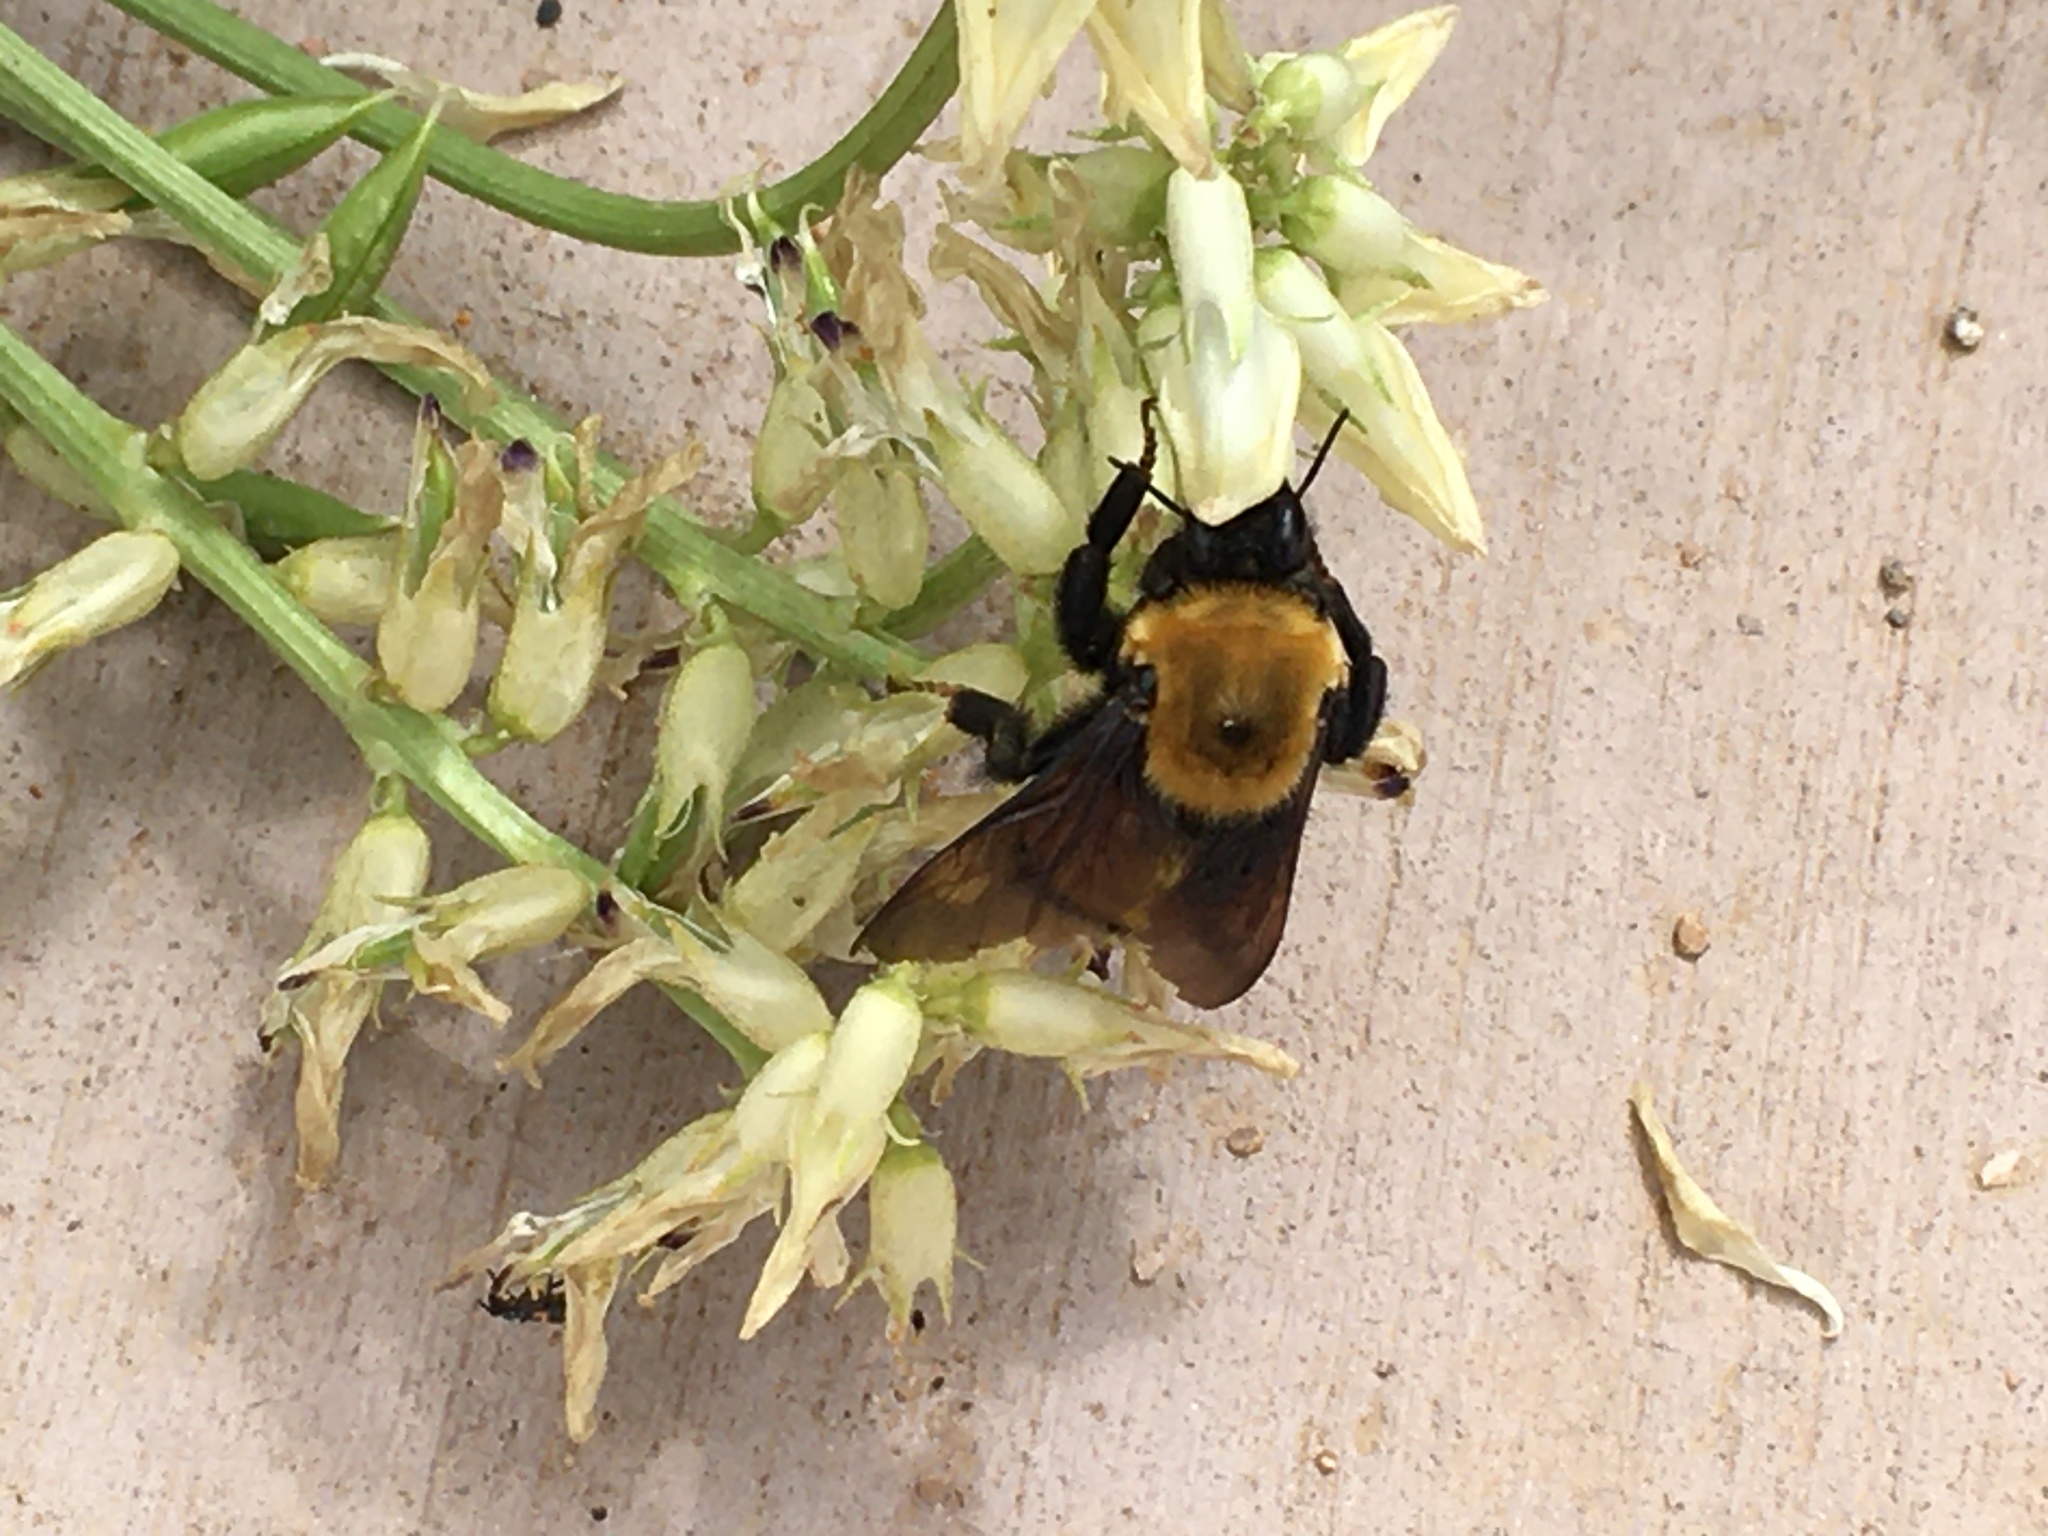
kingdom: Animalia
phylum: Arthropoda
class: Insecta
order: Hymenoptera
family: Apidae
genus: Bombus
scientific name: Bombus nevadensis
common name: Nevada bumble bee
